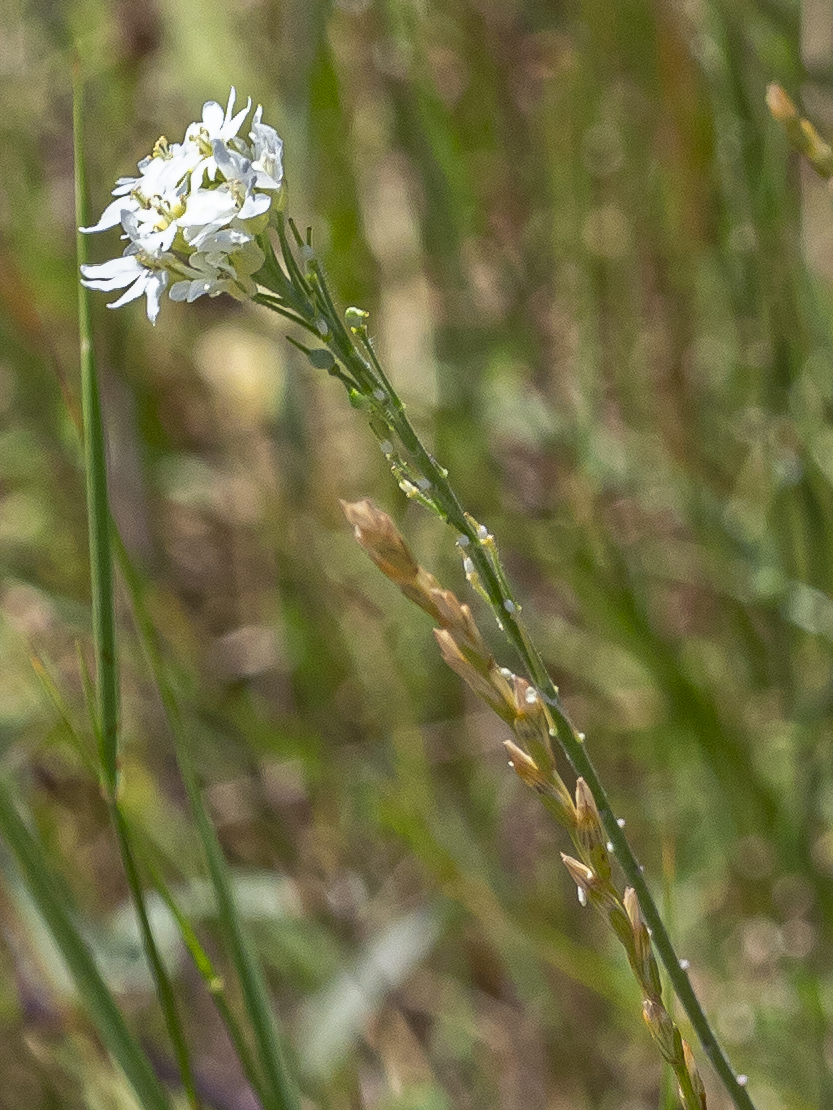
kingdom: Plantae
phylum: Tracheophyta
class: Magnoliopsida
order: Brassicales
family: Brassicaceae
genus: Berteroa
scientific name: Berteroa incana
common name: Hoary alison
